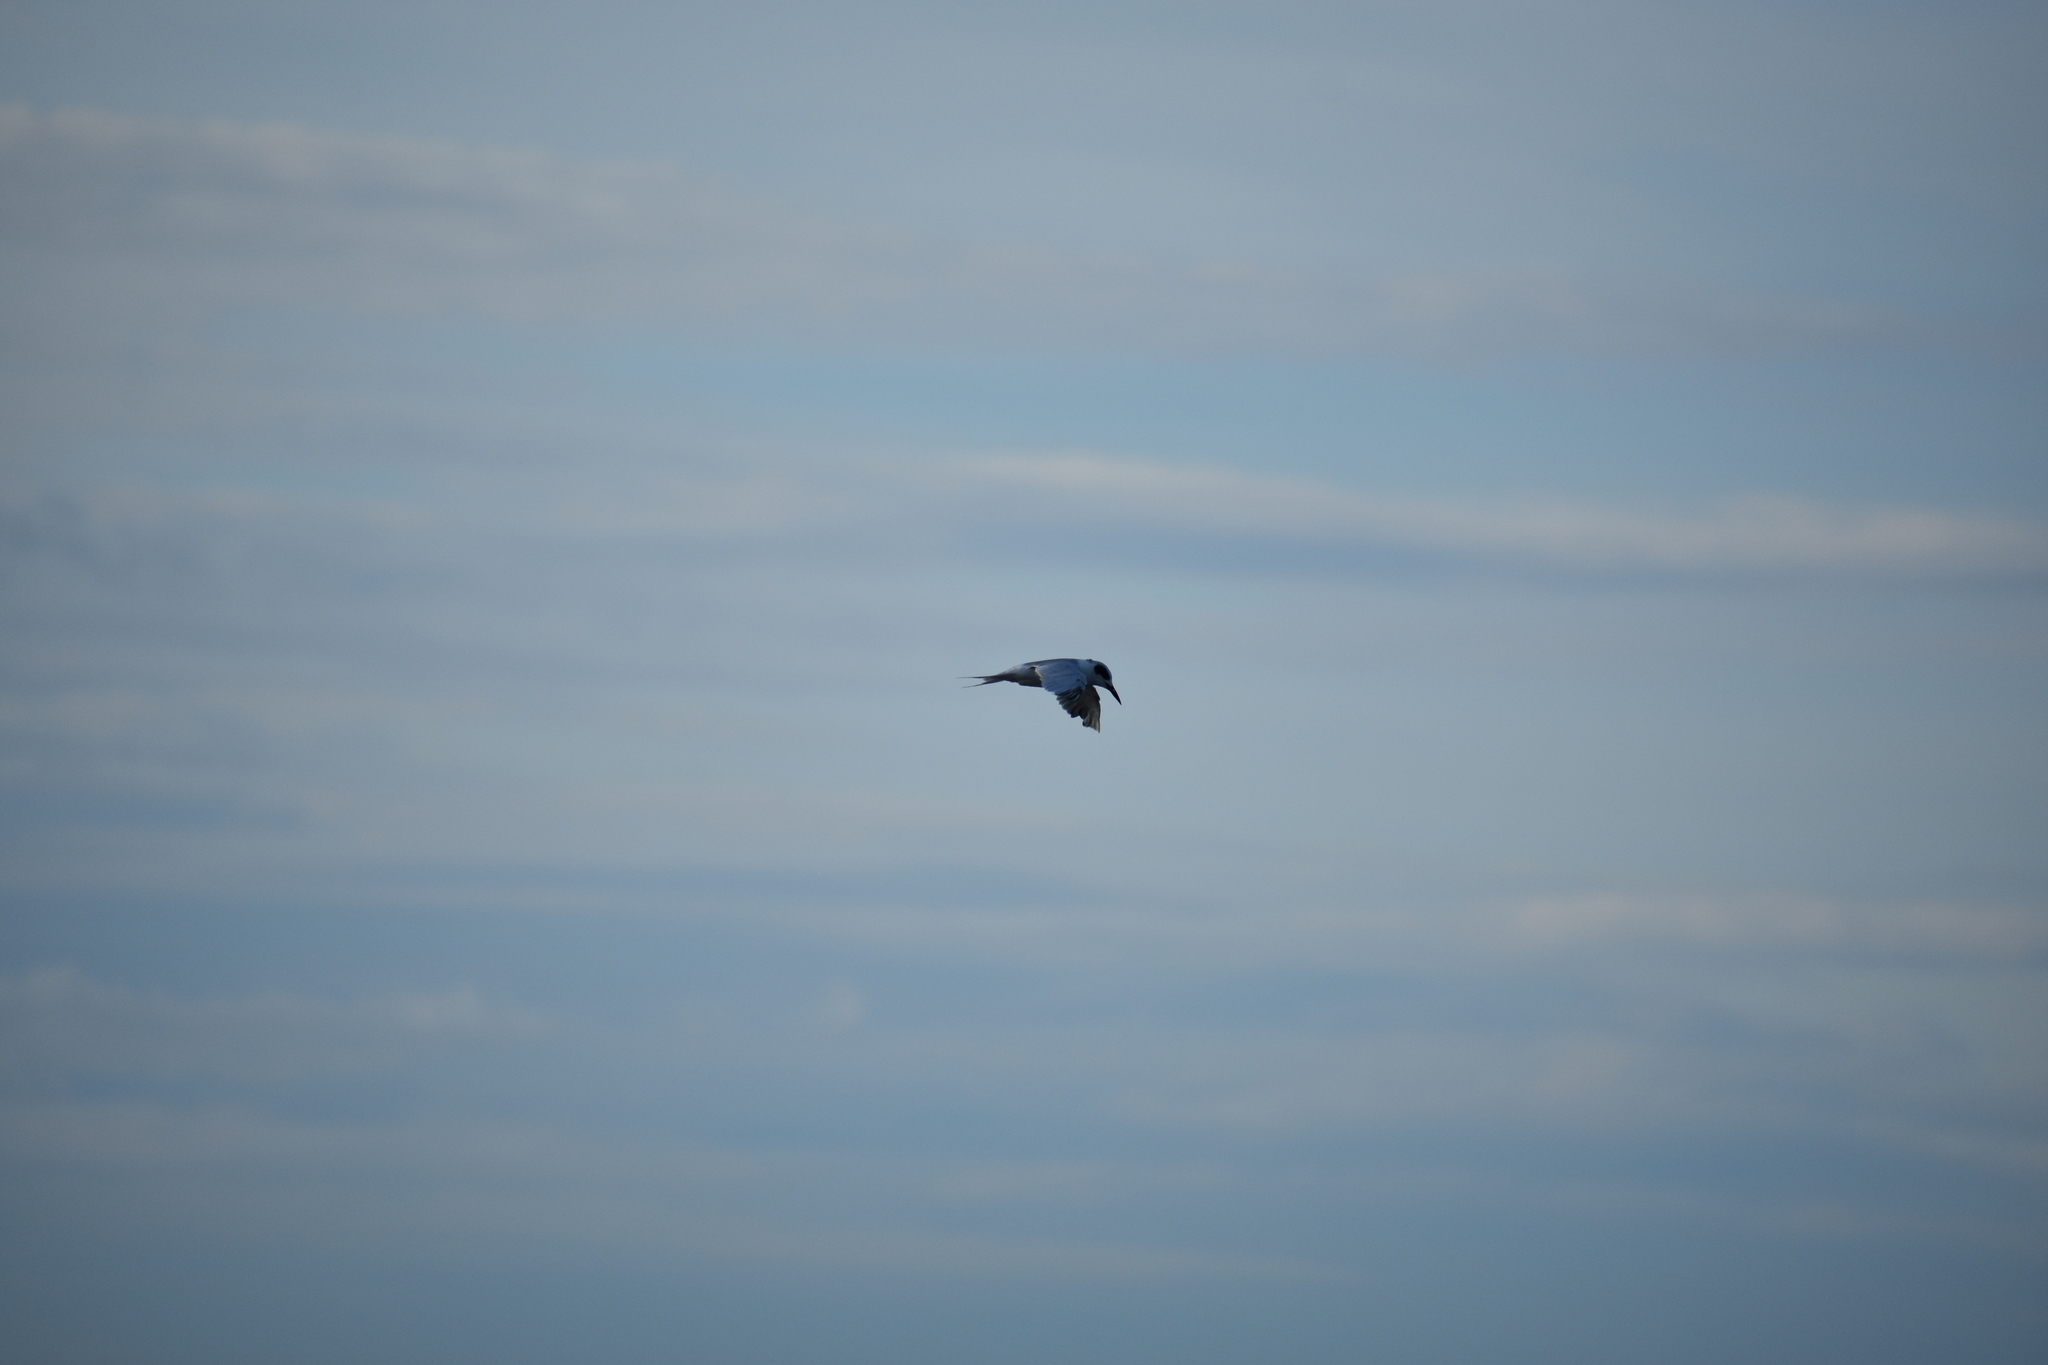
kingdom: Animalia
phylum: Chordata
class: Aves
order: Charadriiformes
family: Laridae
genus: Sterna
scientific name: Sterna forsteri
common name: Forster's tern
